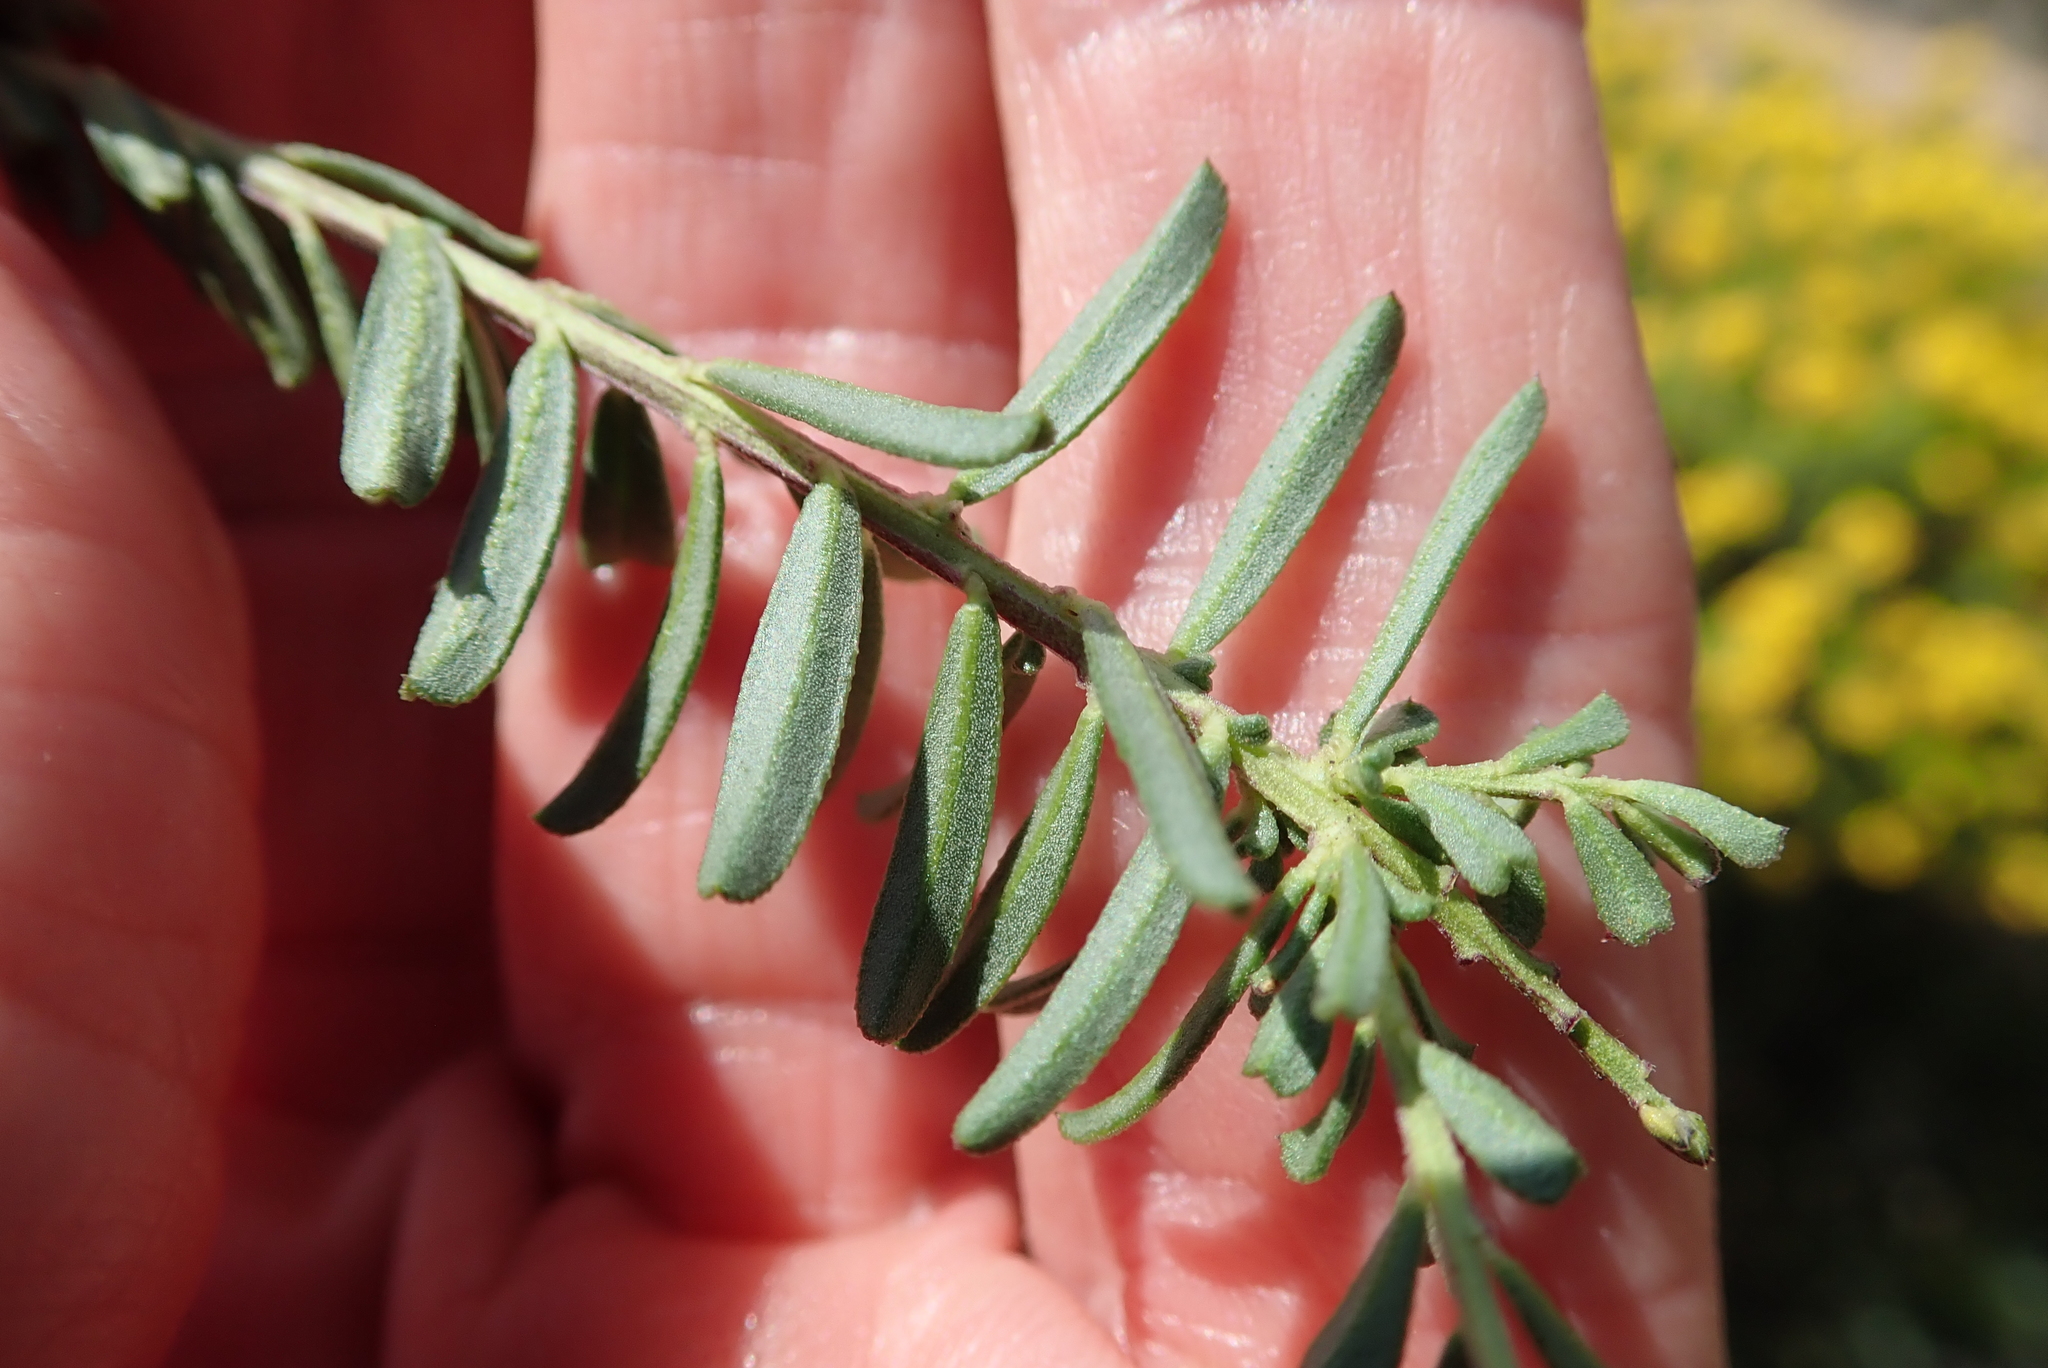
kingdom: Plantae
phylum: Tracheophyta
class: Magnoliopsida
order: Fabales
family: Polygalaceae
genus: Polygala
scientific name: Polygala rehmannii
